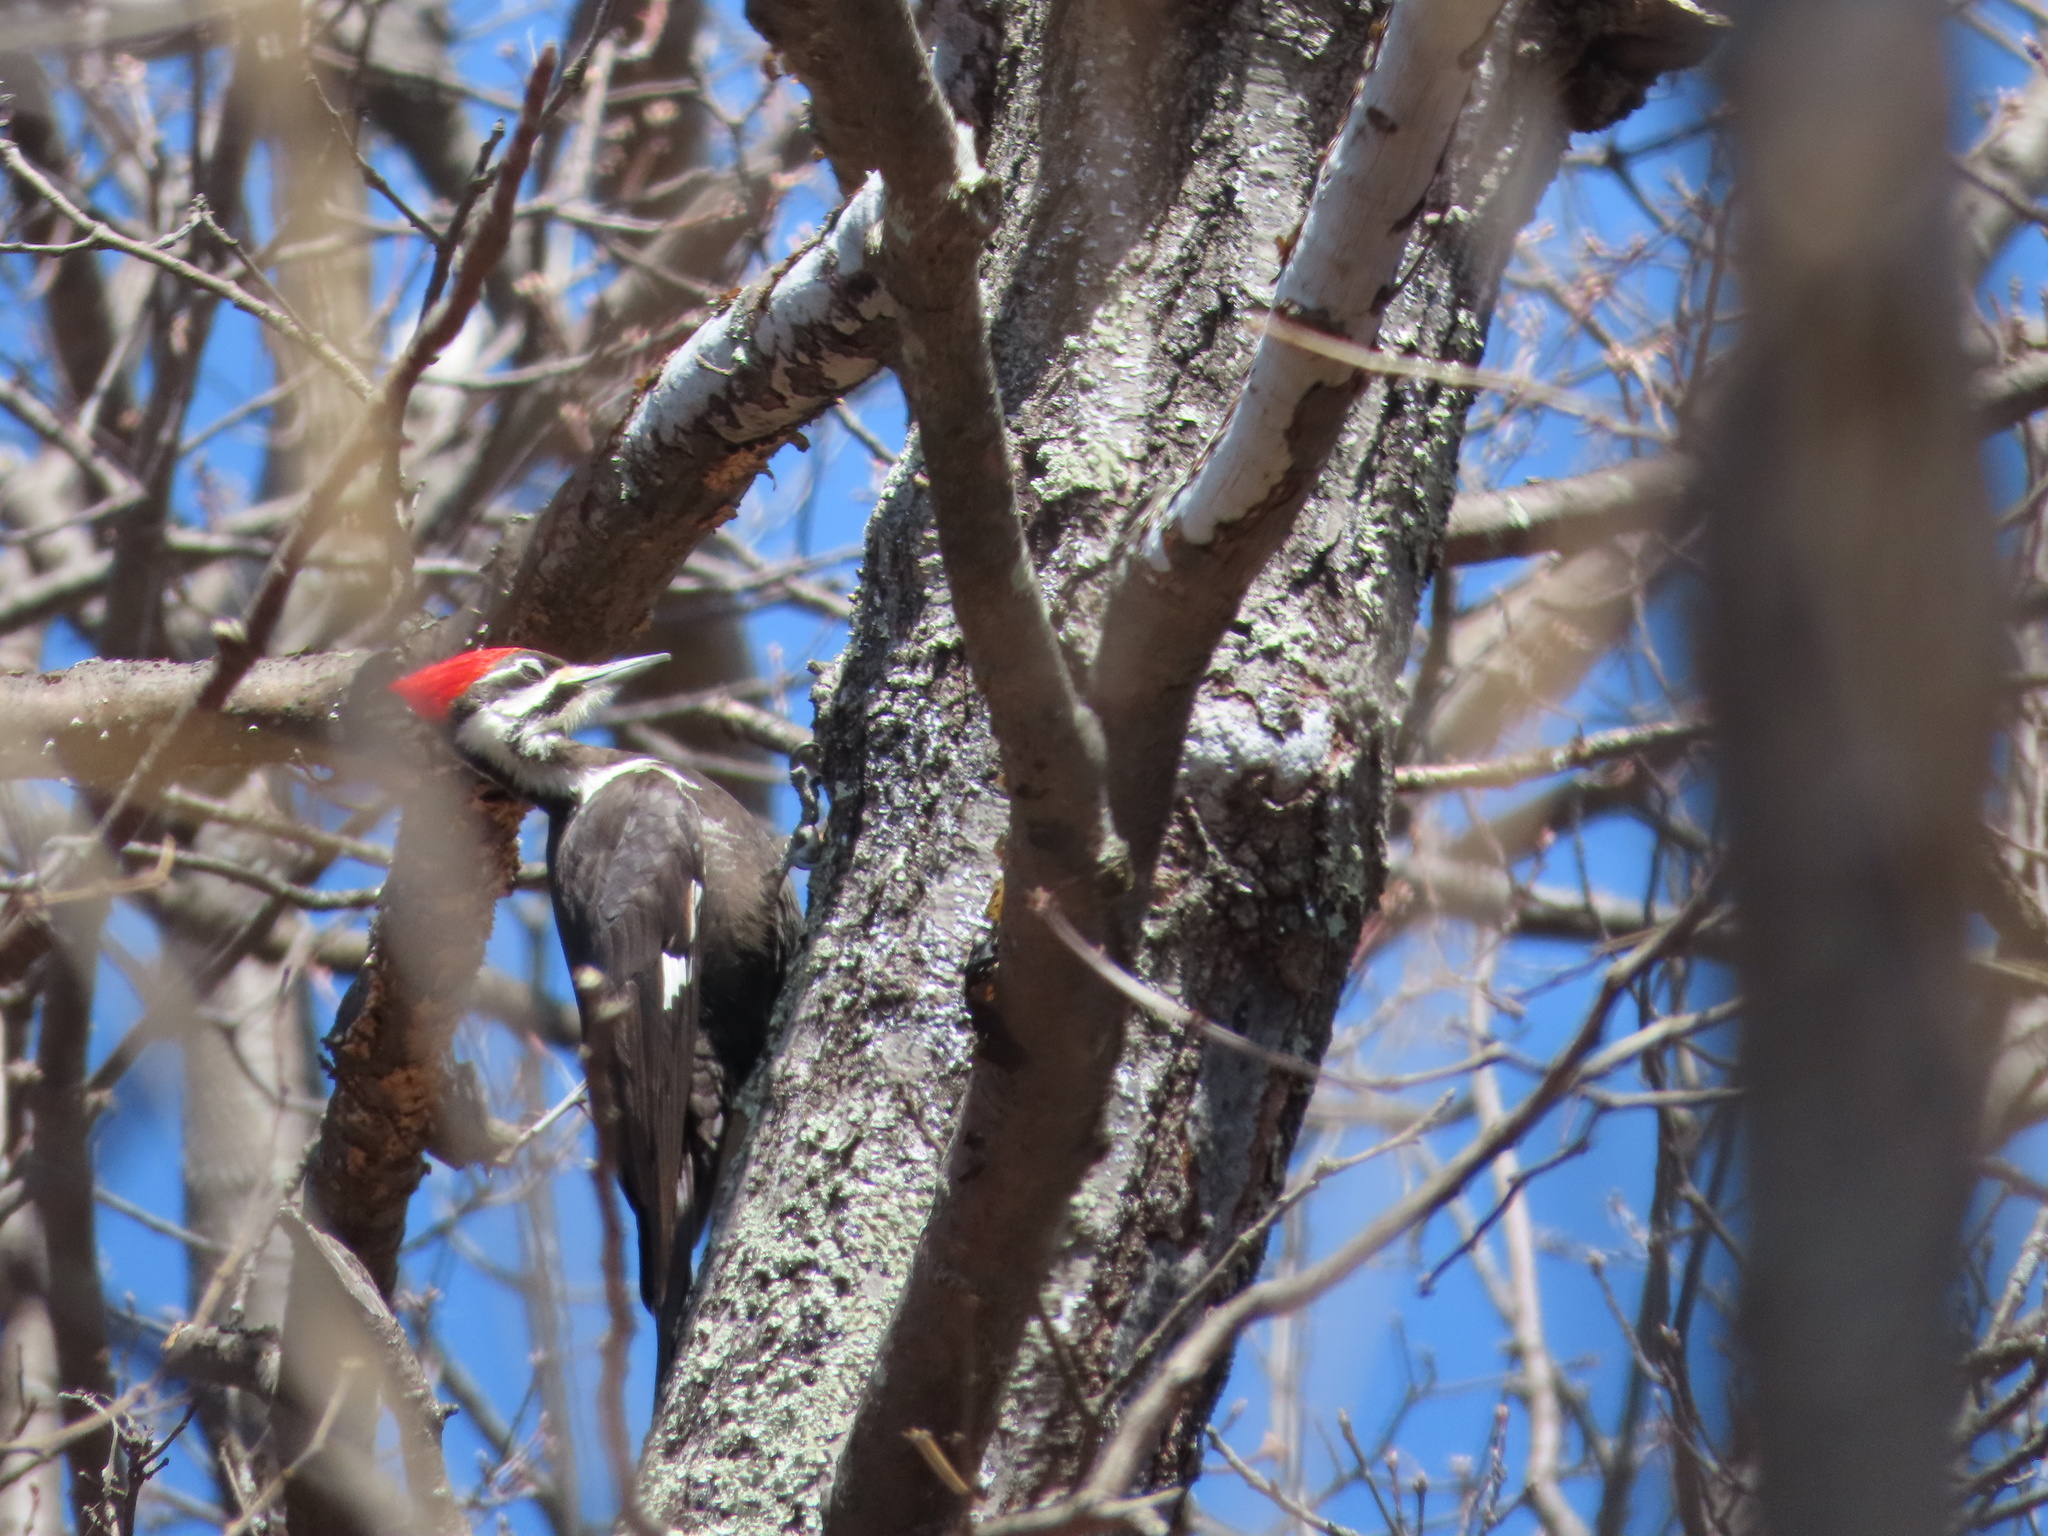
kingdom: Animalia
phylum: Chordata
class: Aves
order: Piciformes
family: Picidae
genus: Dryocopus
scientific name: Dryocopus pileatus
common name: Pileated woodpecker
